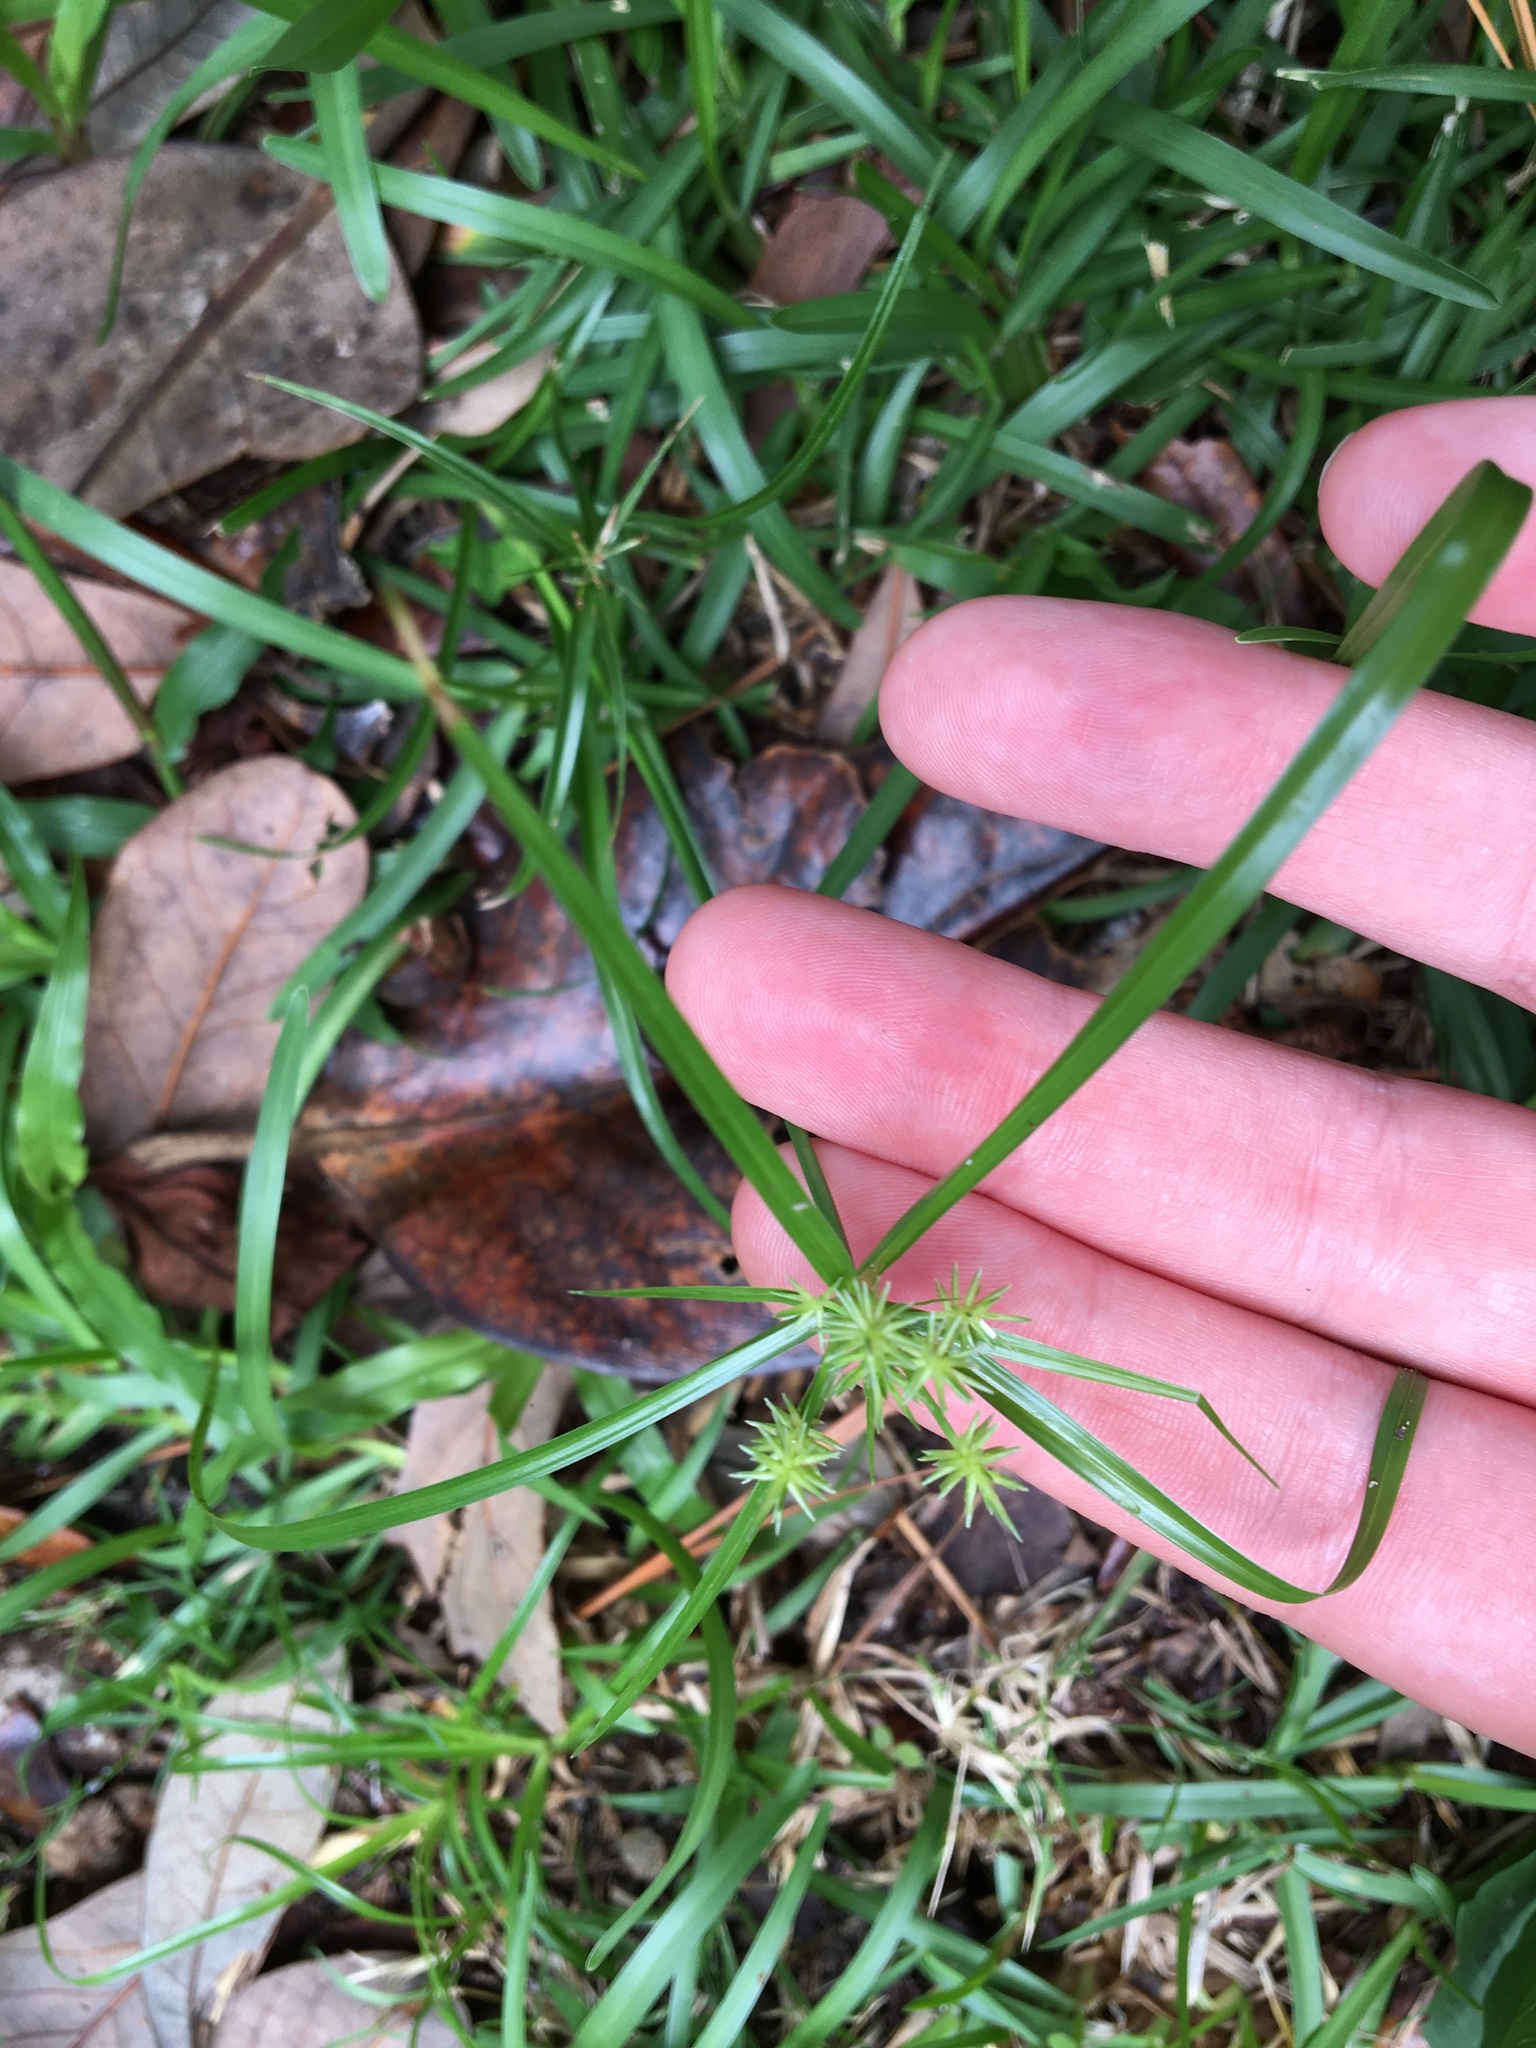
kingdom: Plantae
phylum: Tracheophyta
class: Liliopsida
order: Poales
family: Cyperaceae
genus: Cyperus
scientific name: Cyperus croceus
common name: Baldwin's flatsedge
